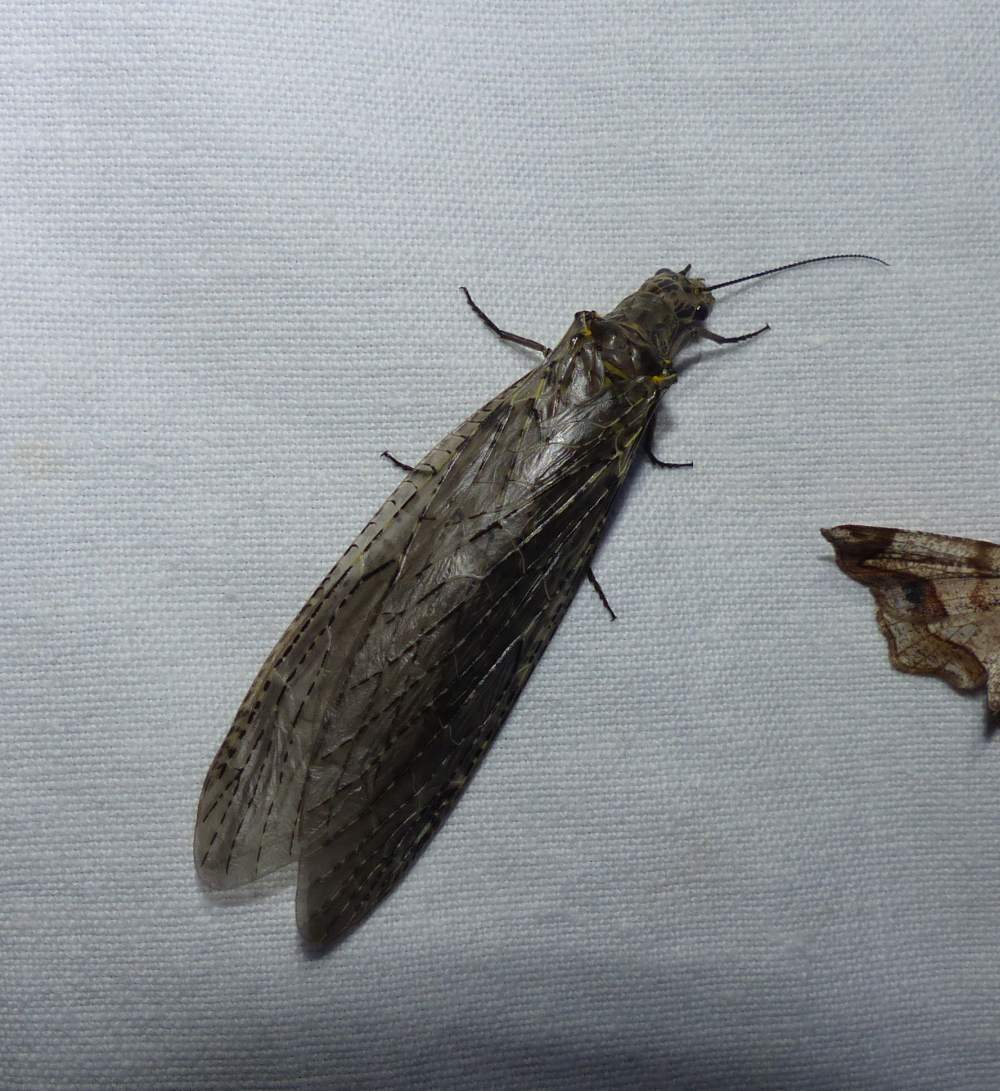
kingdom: Animalia
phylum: Arthropoda
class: Insecta
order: Megaloptera
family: Corydalidae
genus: Chauliodes
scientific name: Chauliodes rastricornis
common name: Spring fishfly
